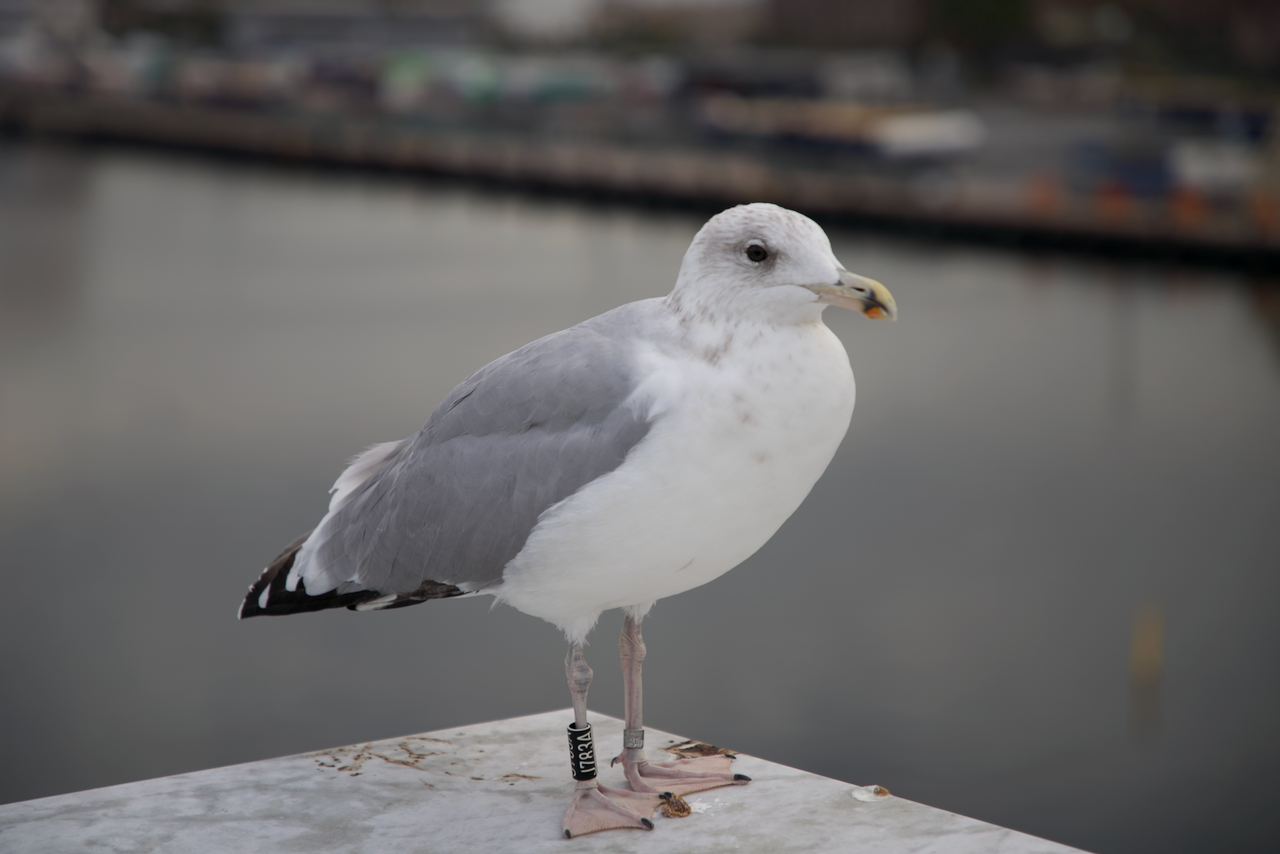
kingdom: Animalia
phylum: Chordata
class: Aves
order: Charadriiformes
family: Laridae
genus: Larus
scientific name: Larus argentatus
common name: Herring gull
